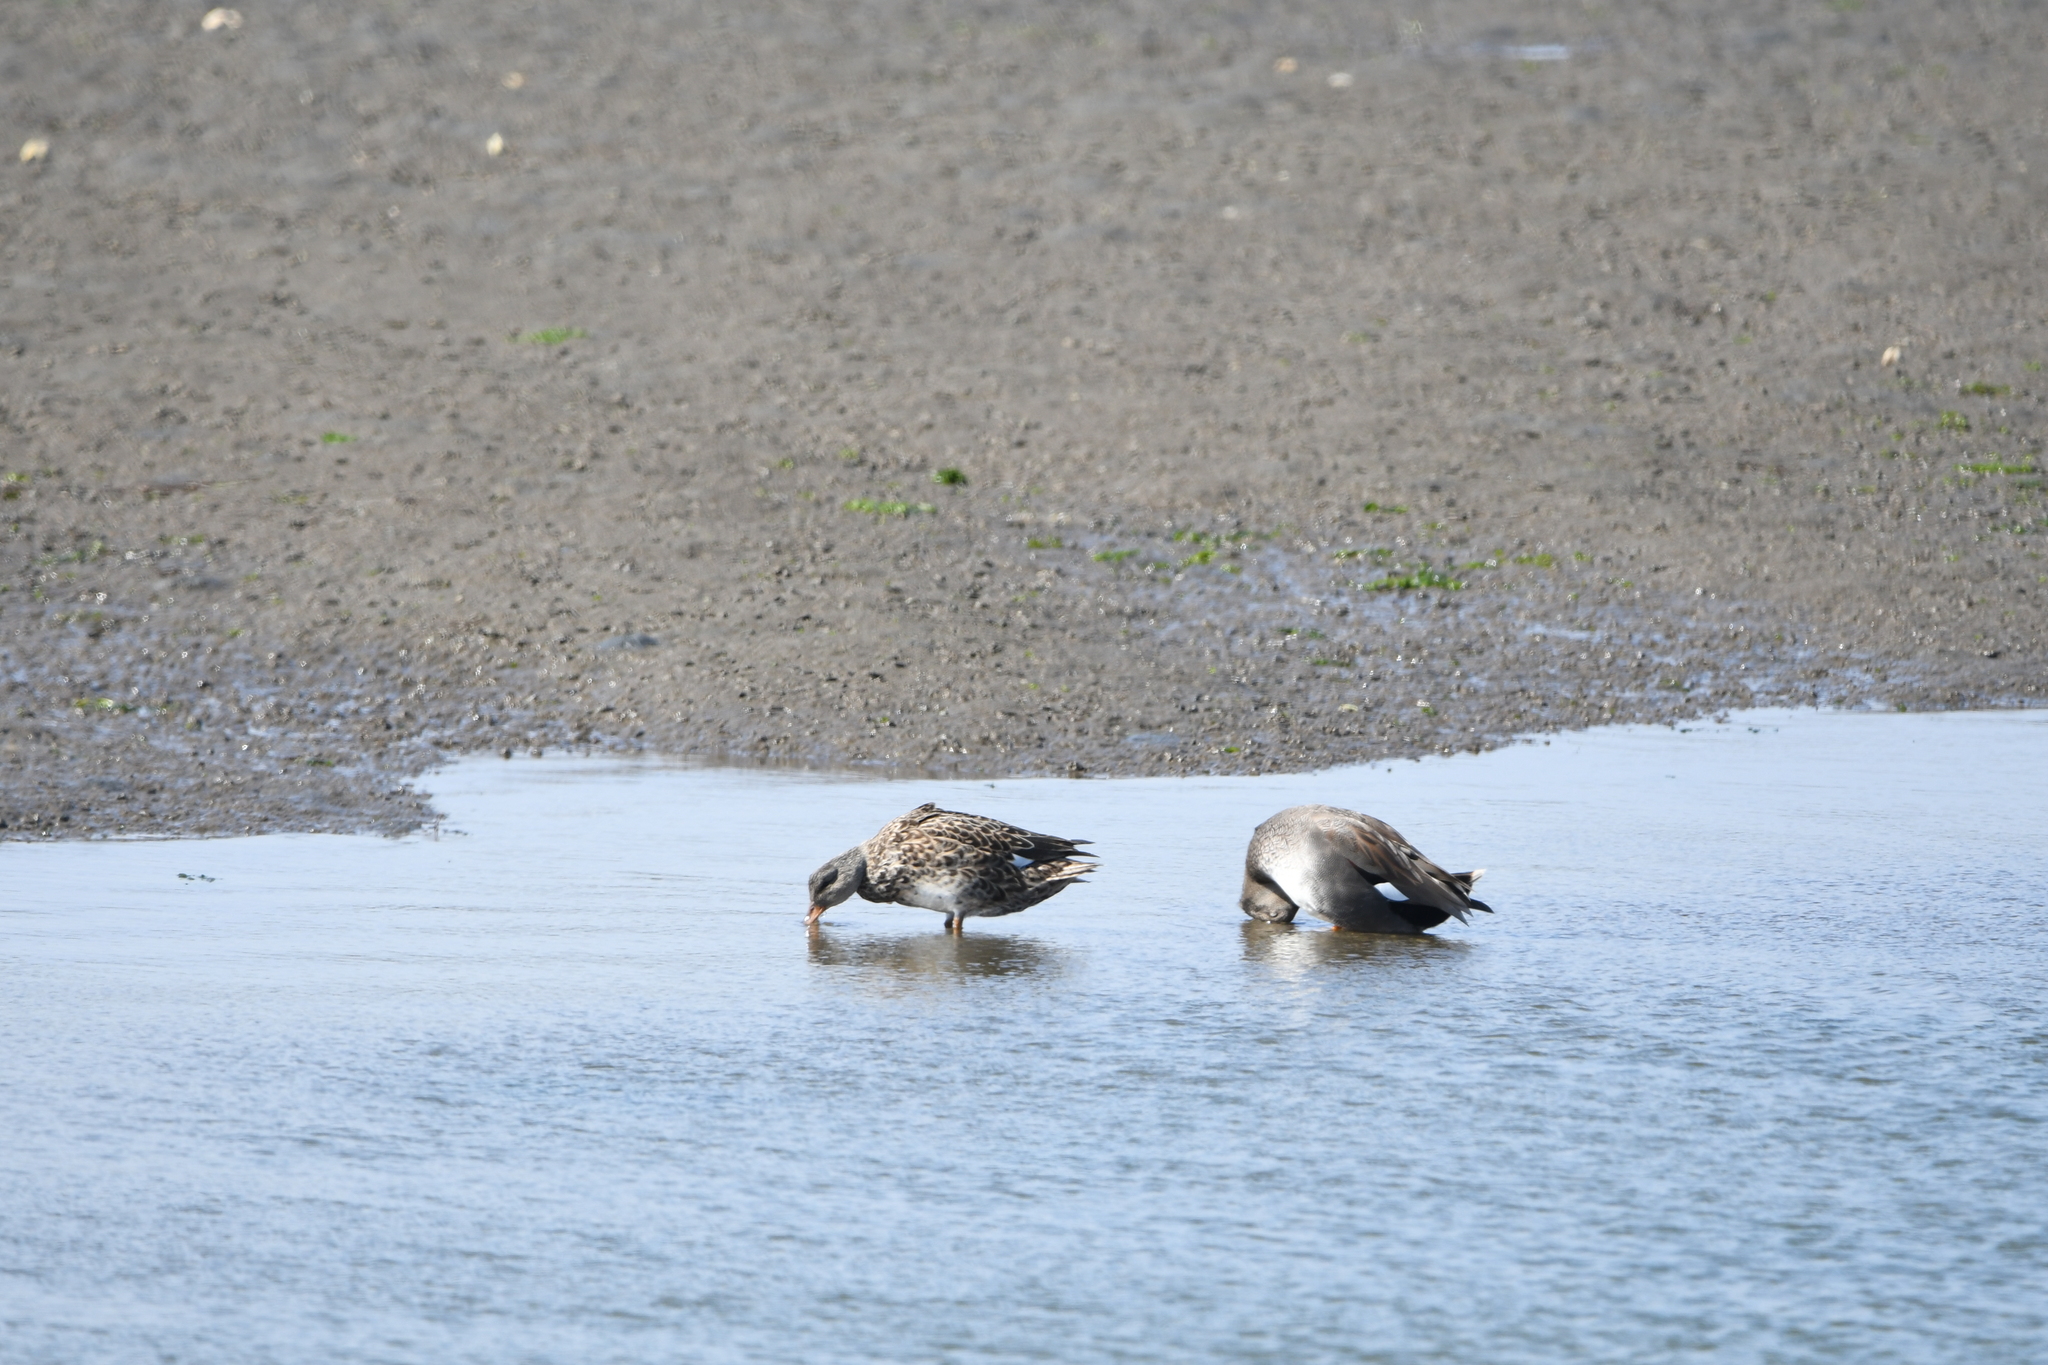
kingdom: Animalia
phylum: Chordata
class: Aves
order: Anseriformes
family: Anatidae
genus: Mareca
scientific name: Mareca strepera
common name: Gadwall
